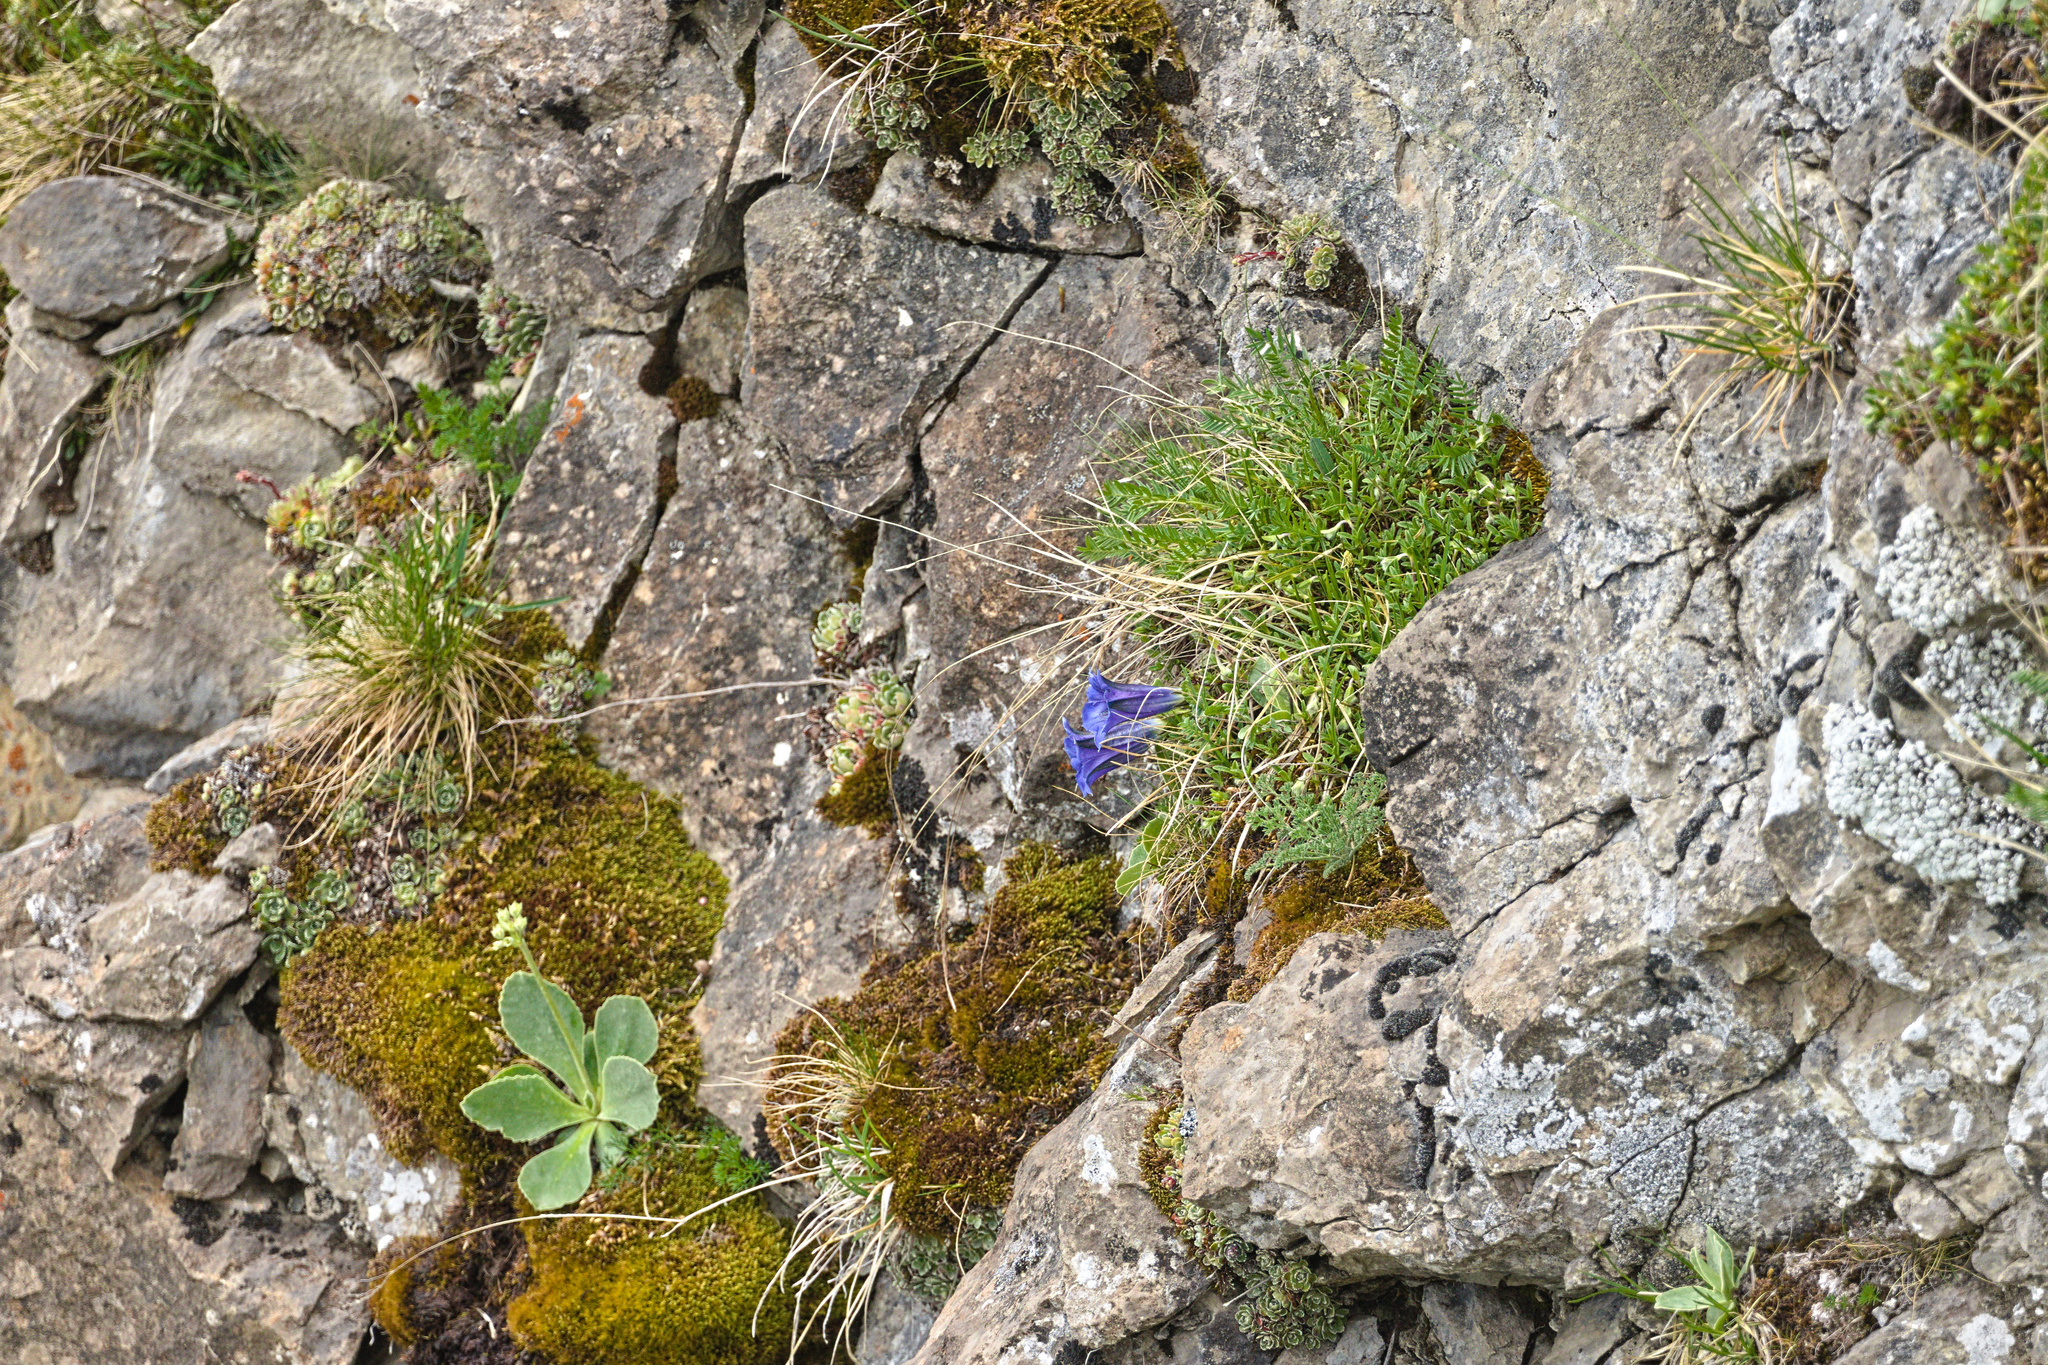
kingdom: Plantae
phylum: Tracheophyta
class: Magnoliopsida
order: Ericales
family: Primulaceae
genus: Primula
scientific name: Primula auricula
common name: Auricula
